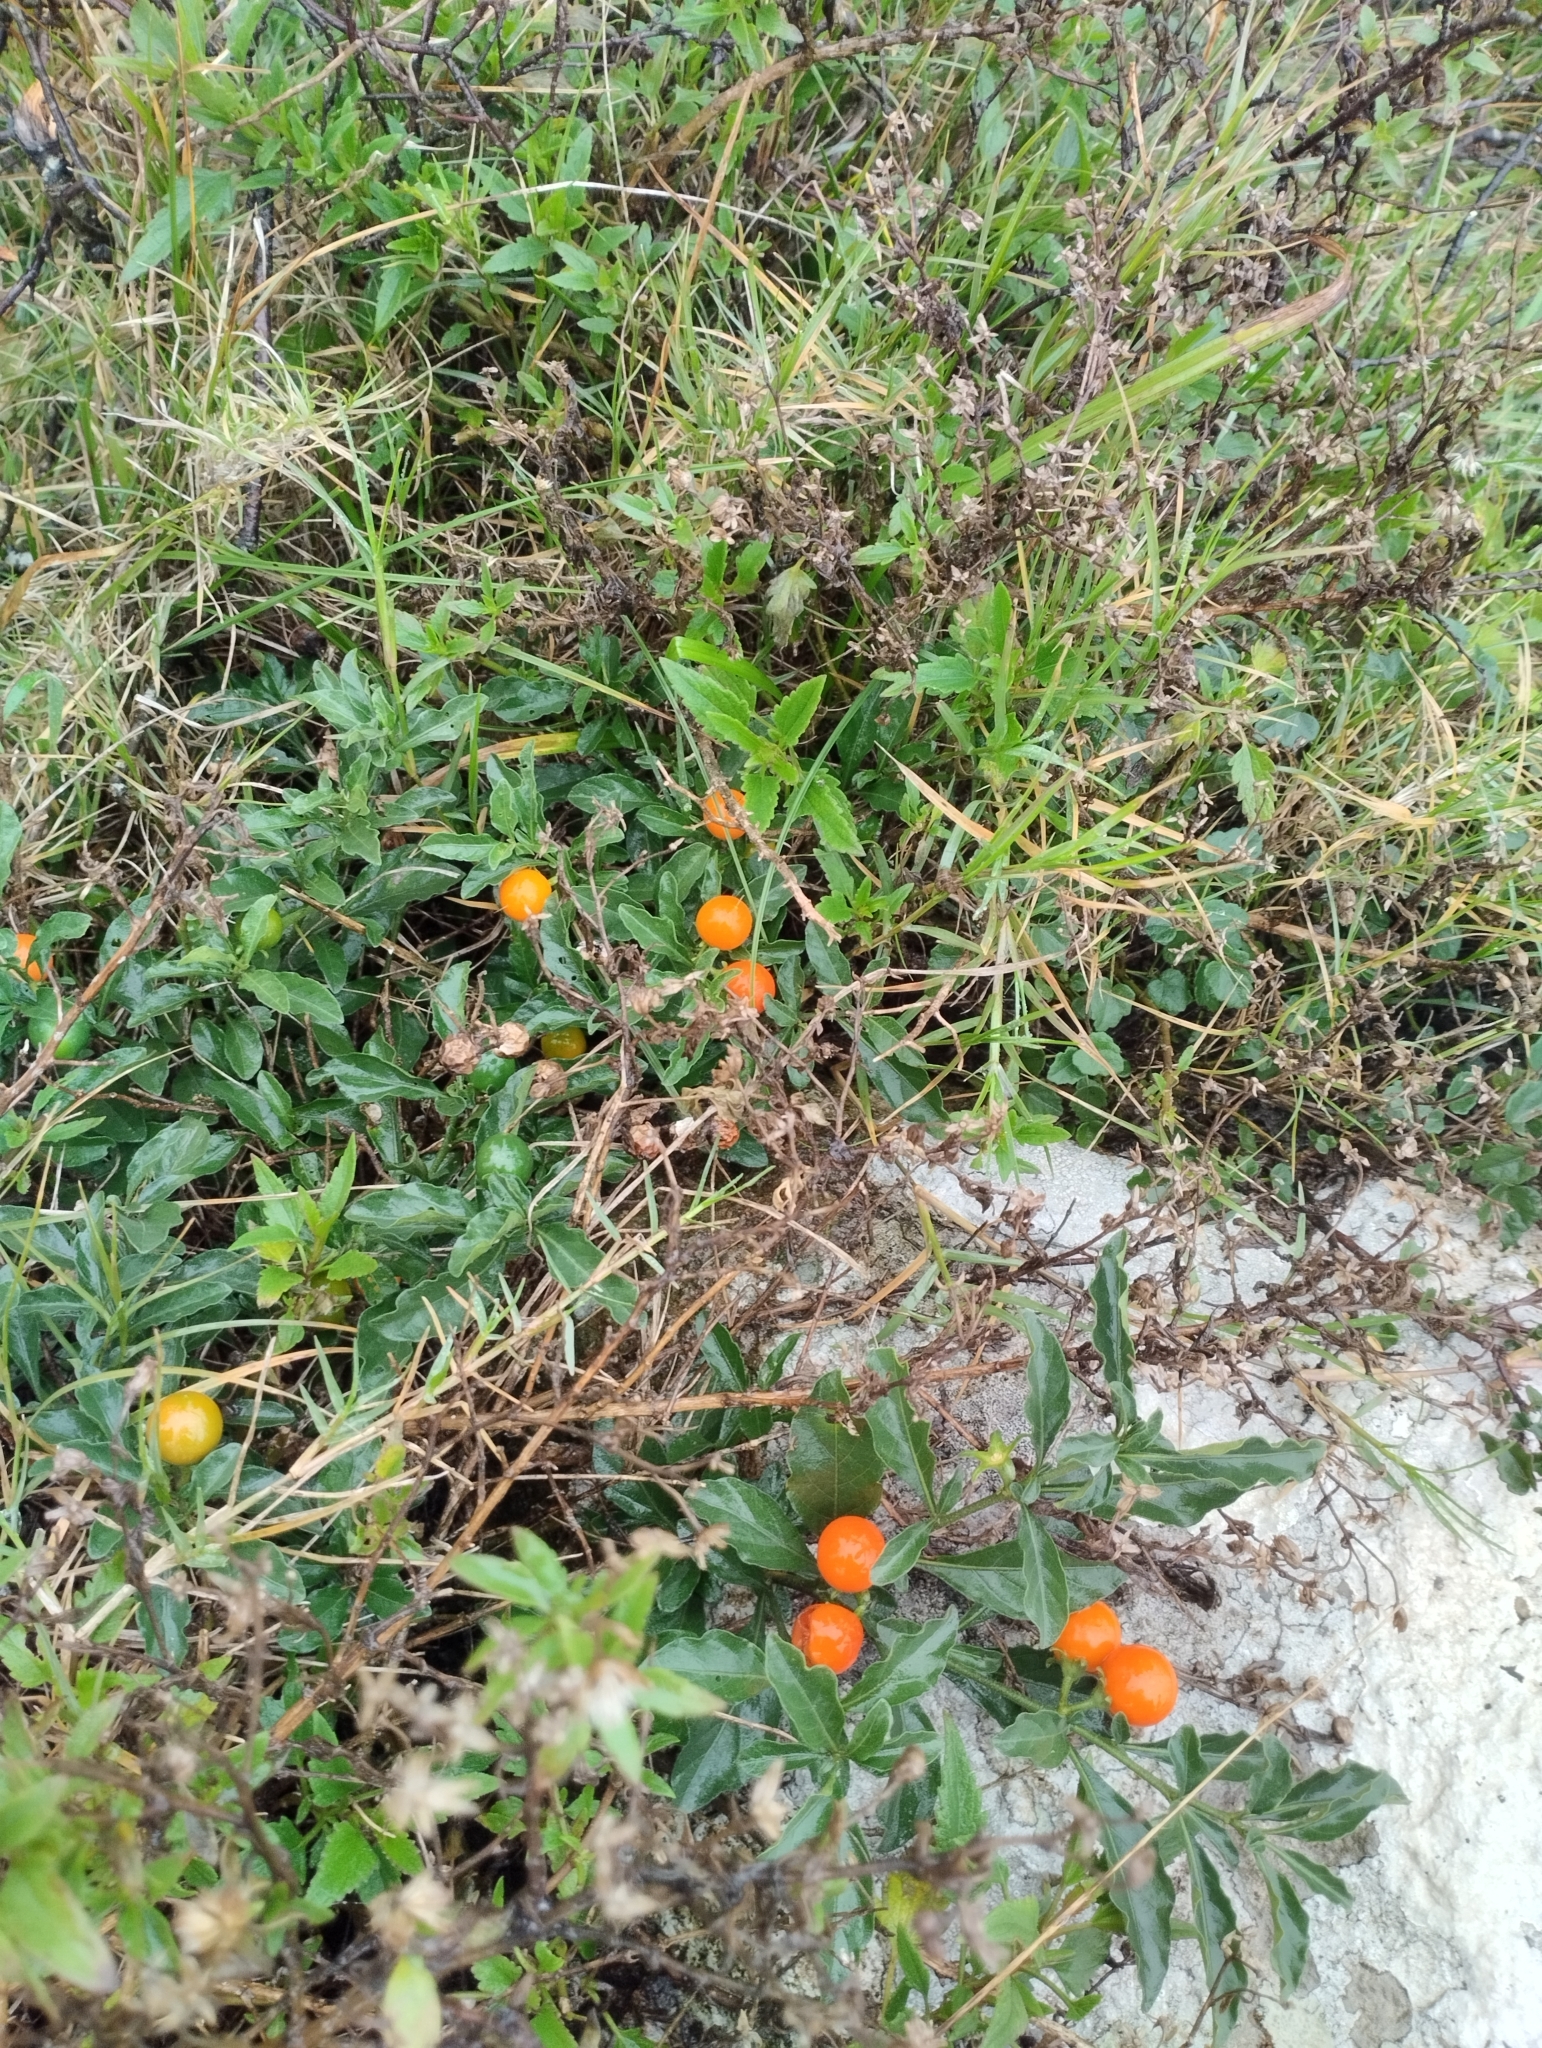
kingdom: Plantae
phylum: Tracheophyta
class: Magnoliopsida
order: Solanales
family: Solanaceae
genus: Solanum
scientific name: Solanum pseudocapsicum
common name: Jerusalem cherry
